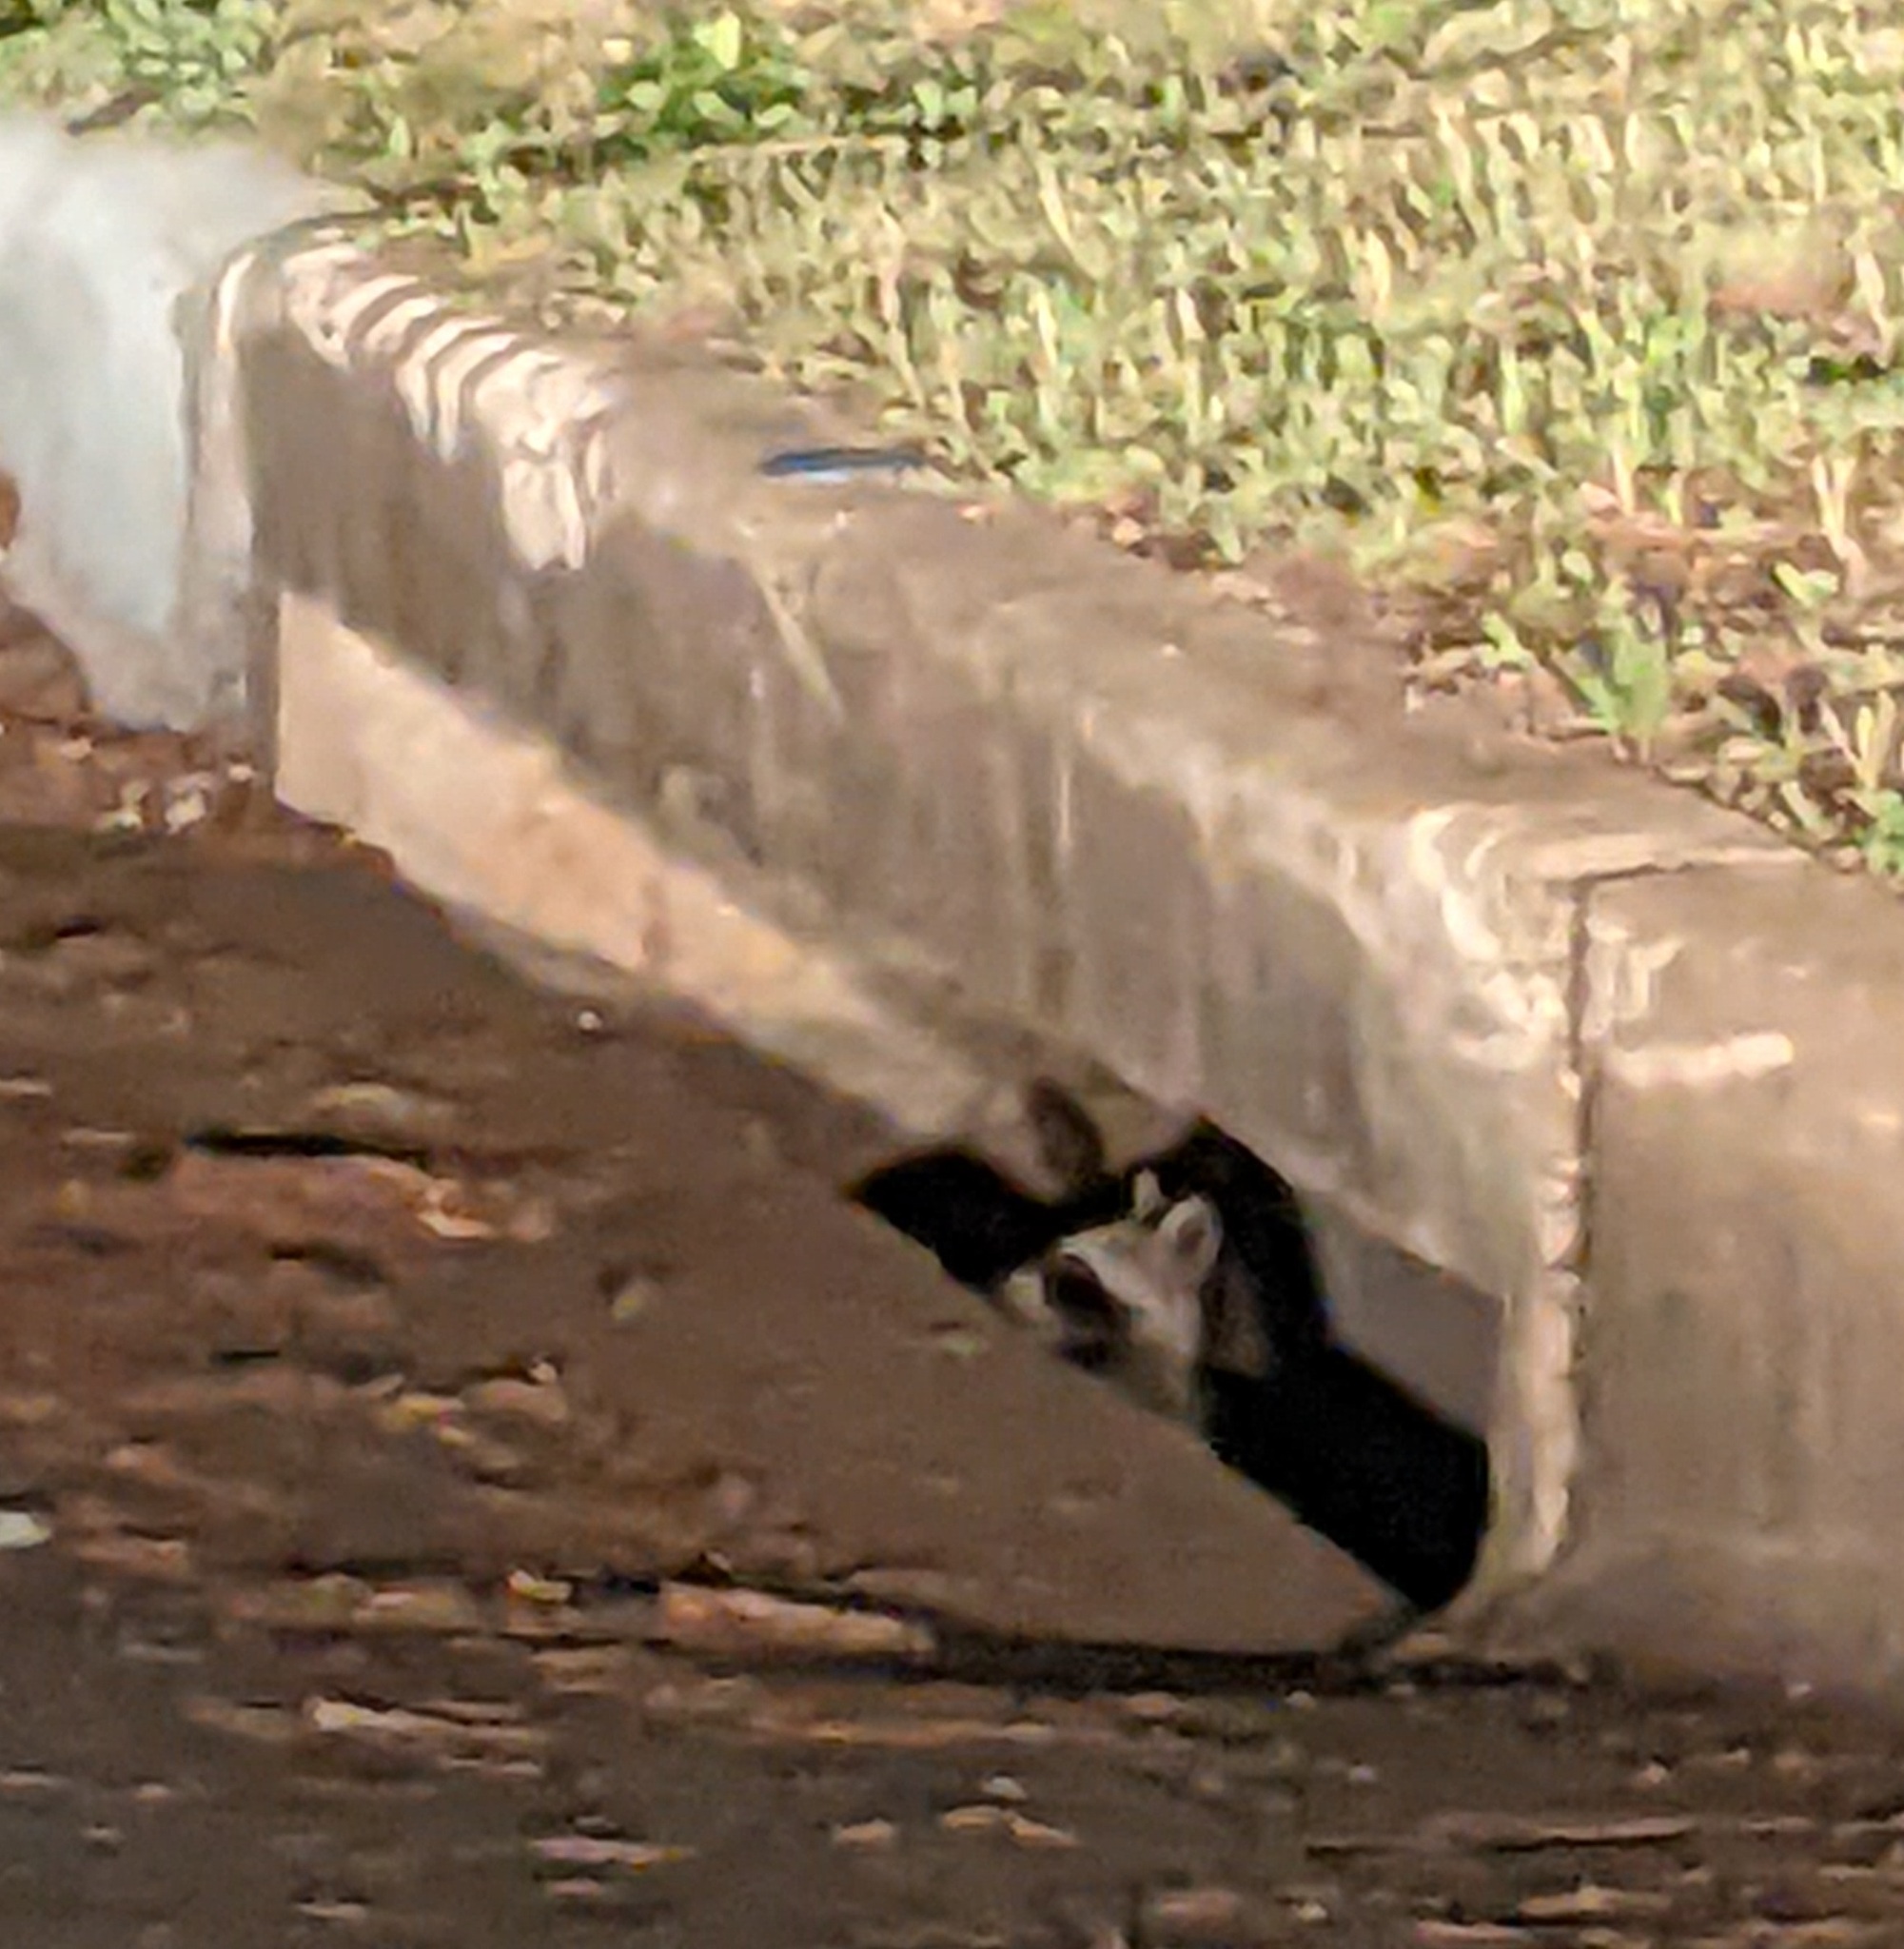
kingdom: Animalia
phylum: Chordata
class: Mammalia
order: Carnivora
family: Procyonidae
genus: Procyon
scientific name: Procyon lotor
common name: Raccoon
